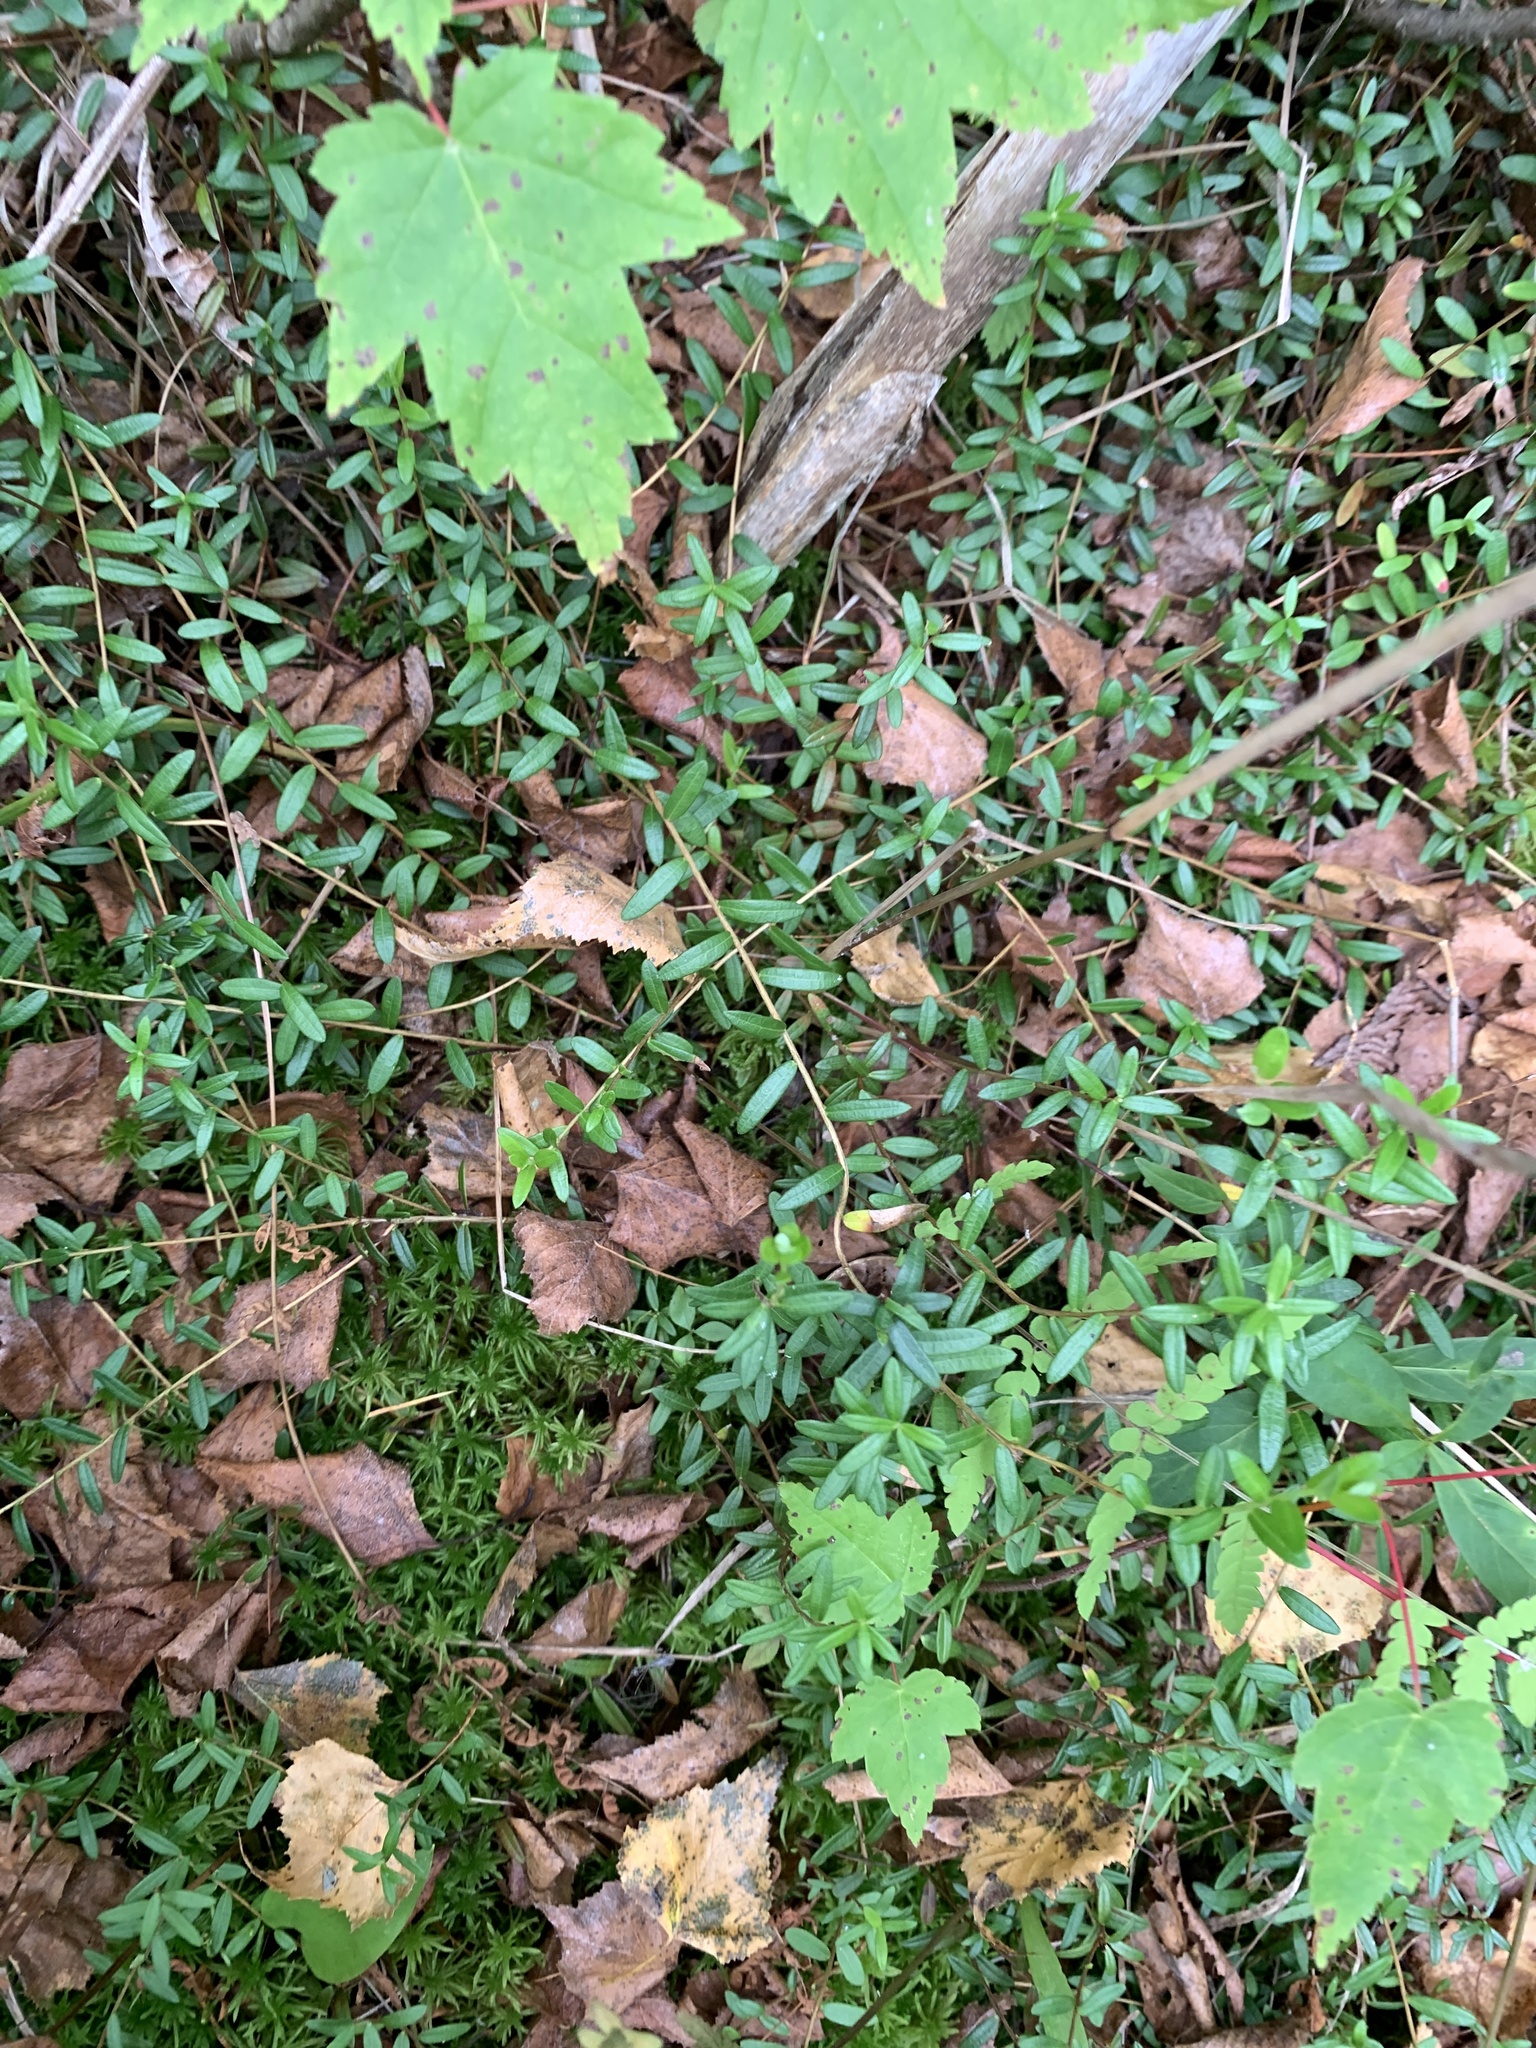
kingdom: Plantae
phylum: Tracheophyta
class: Magnoliopsida
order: Ericales
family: Ericaceae
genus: Vaccinium
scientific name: Vaccinium macrocarpon
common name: American cranberry
